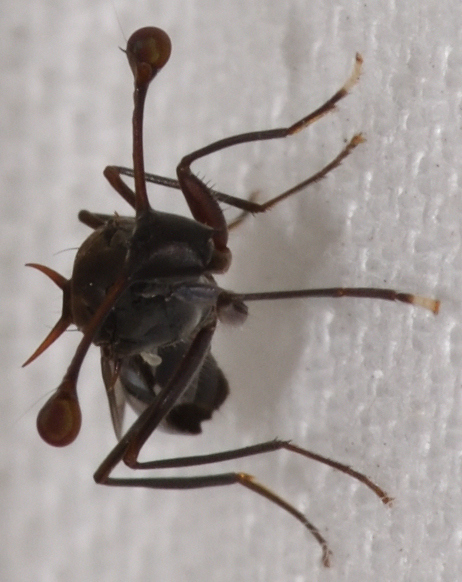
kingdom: Animalia
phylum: Arthropoda
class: Insecta
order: Diptera
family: Diopsidae
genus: Chaetodiopsis
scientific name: Chaetodiopsis
